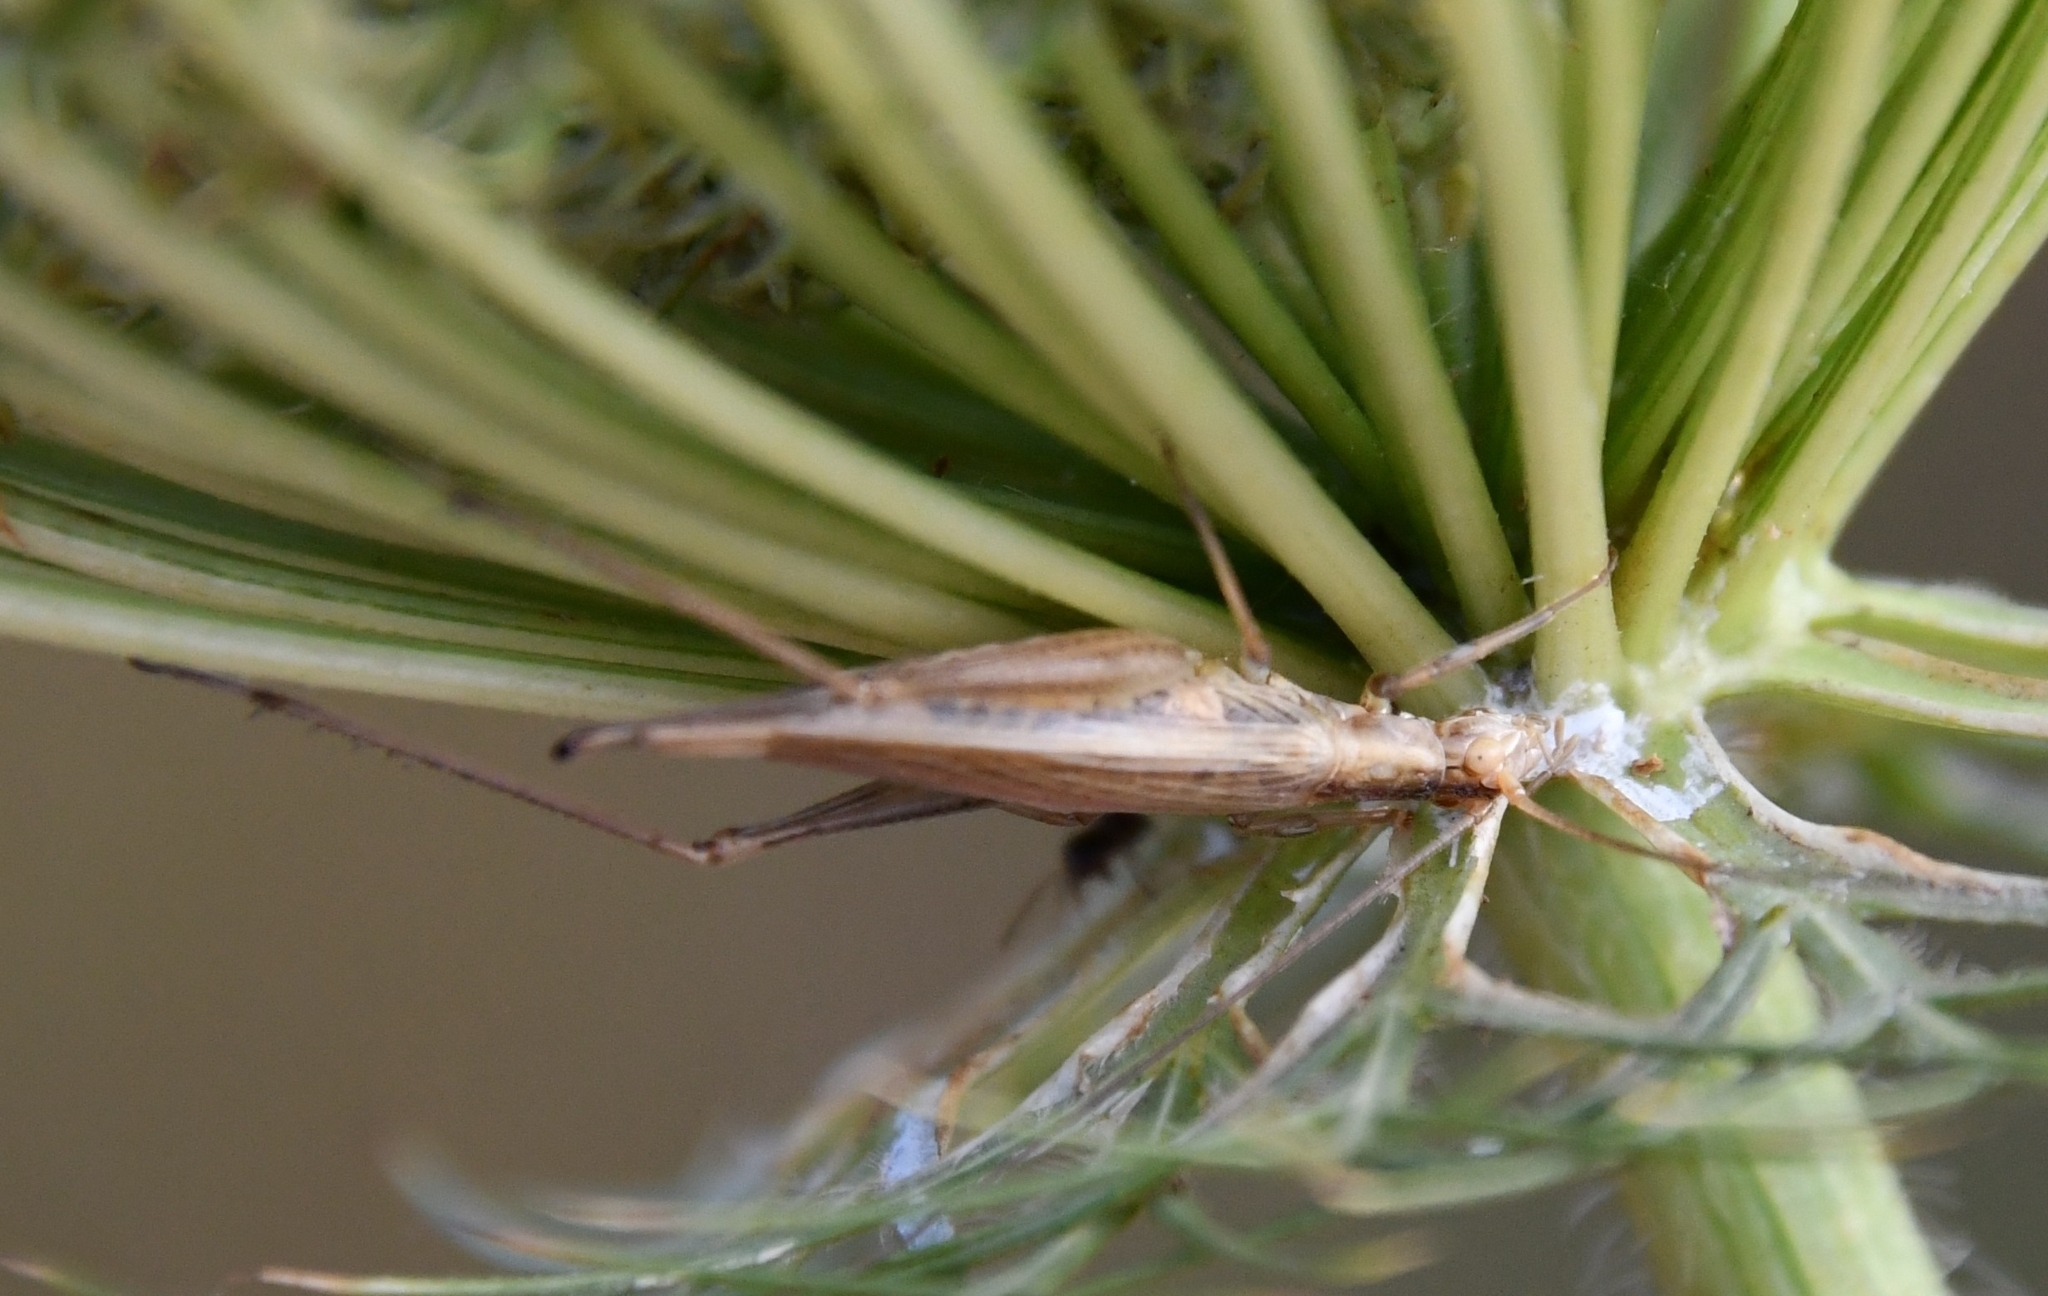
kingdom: Animalia
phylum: Arthropoda
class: Insecta
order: Orthoptera
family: Gryllidae
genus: Oecanthus
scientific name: Oecanthus pellucens
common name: Tree-cricket
